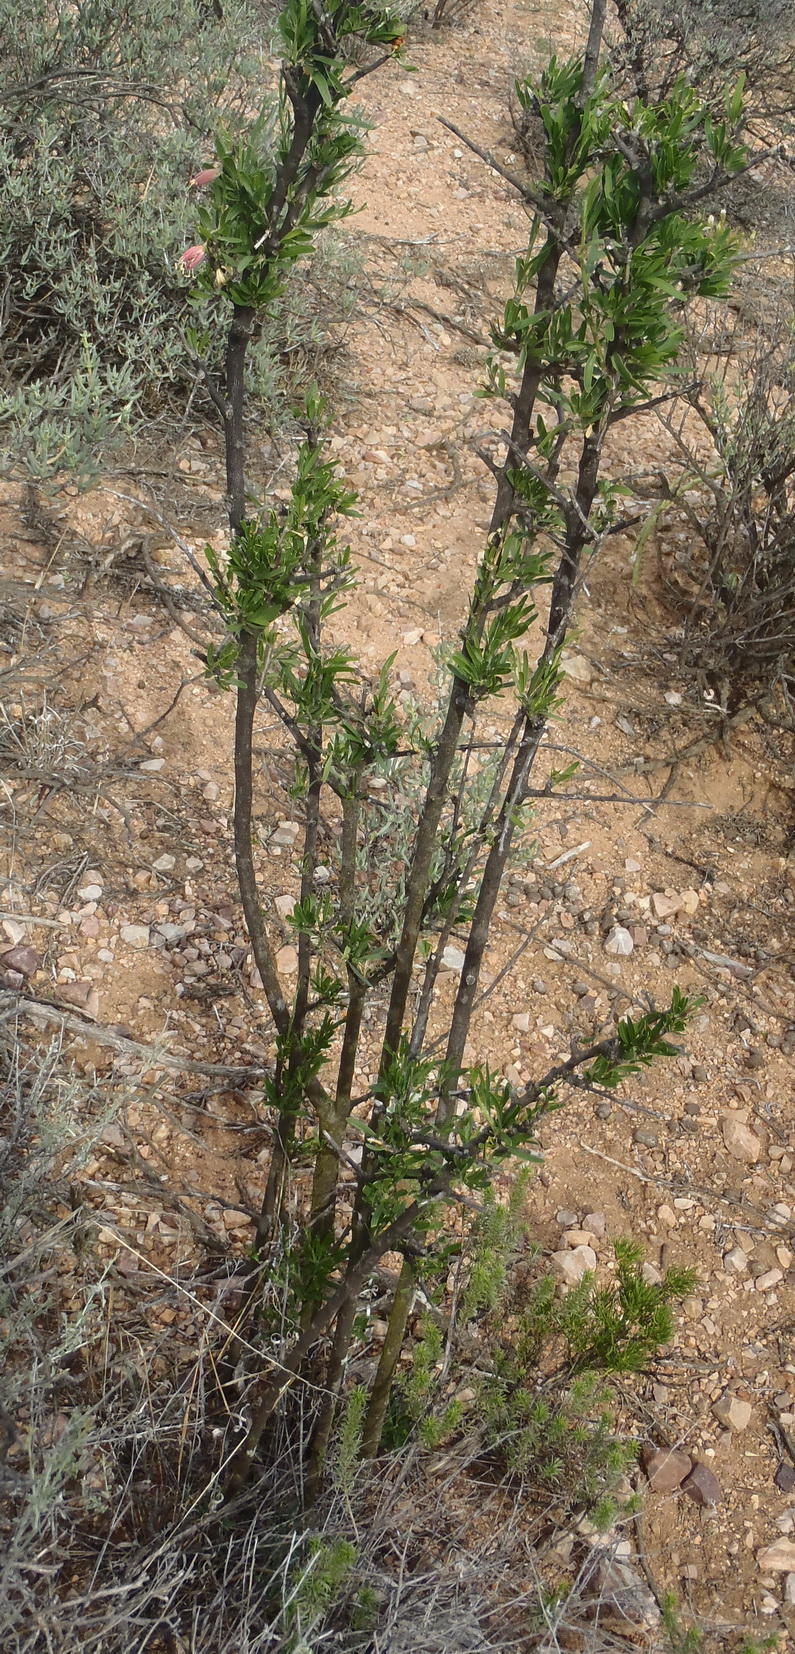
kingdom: Plantae
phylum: Tracheophyta
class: Magnoliopsida
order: Sapindales
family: Meliaceae
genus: Nymania
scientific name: Nymania capensis
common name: Chinese lantern tree
